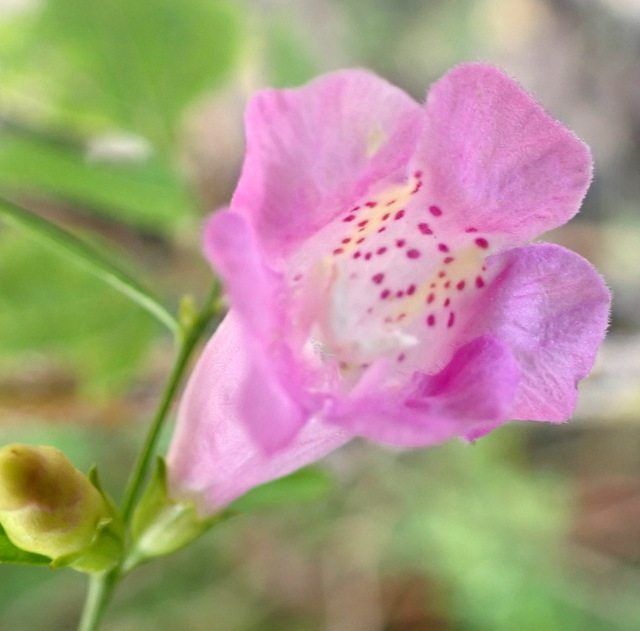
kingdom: Plantae
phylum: Tracheophyta
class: Magnoliopsida
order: Lamiales
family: Orobanchaceae
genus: Agalinis
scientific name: Agalinis fasciculata
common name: Beach false foxglove
